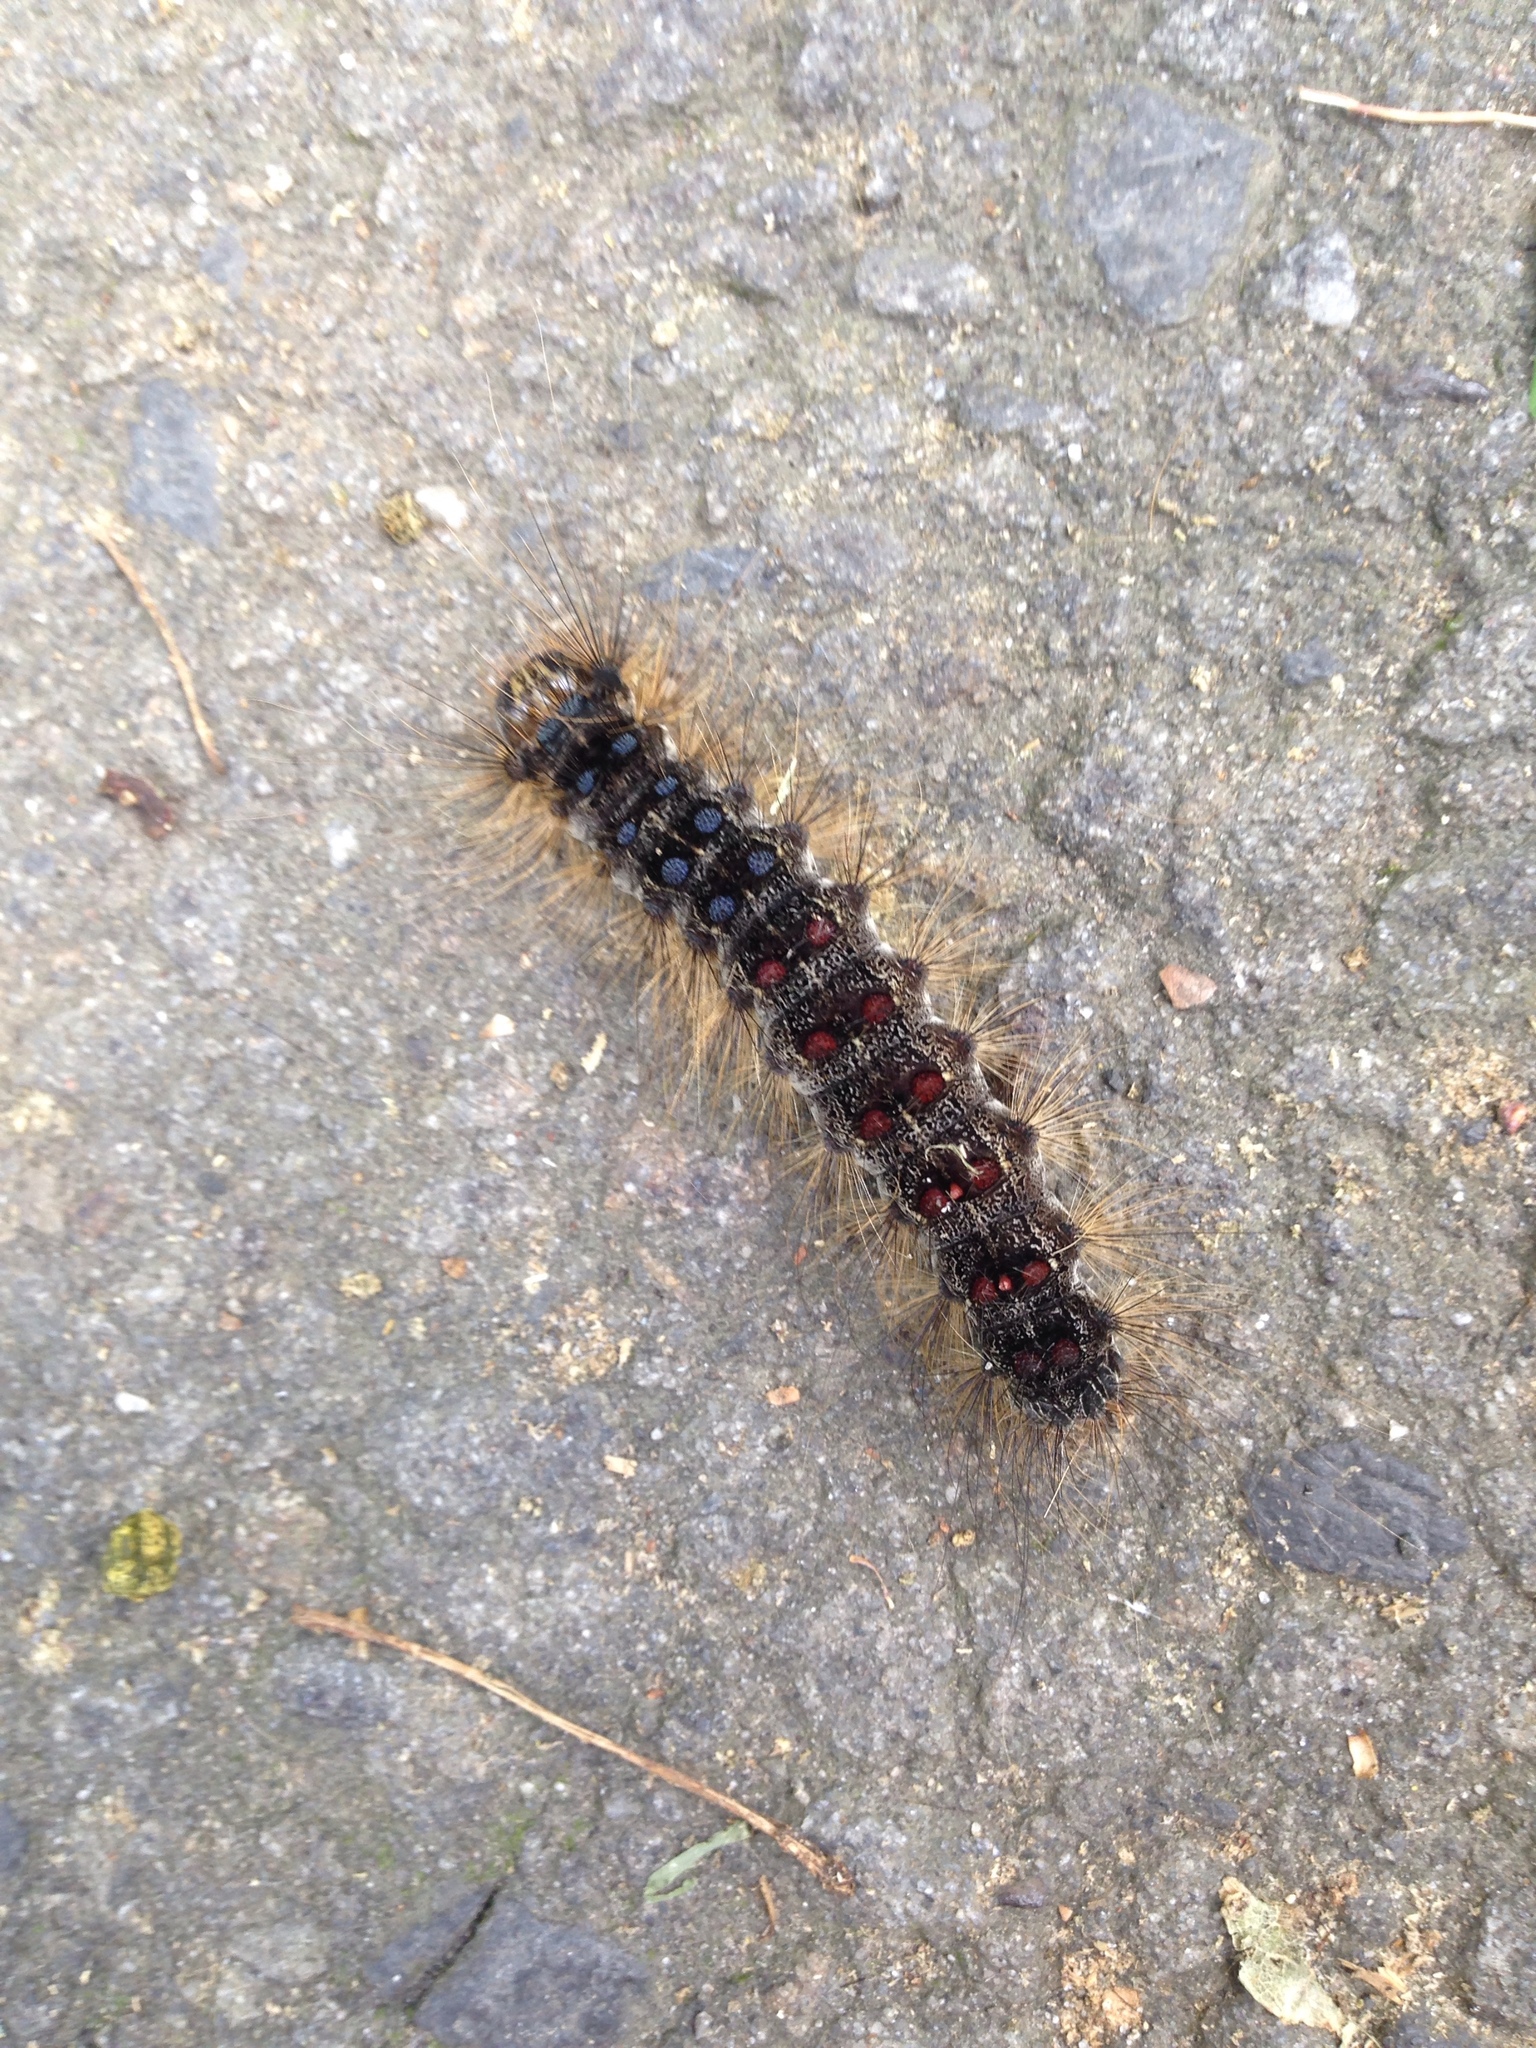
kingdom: Animalia
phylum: Arthropoda
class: Insecta
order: Lepidoptera
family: Erebidae
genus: Lymantria
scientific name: Lymantria dispar
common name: Gypsy moth
